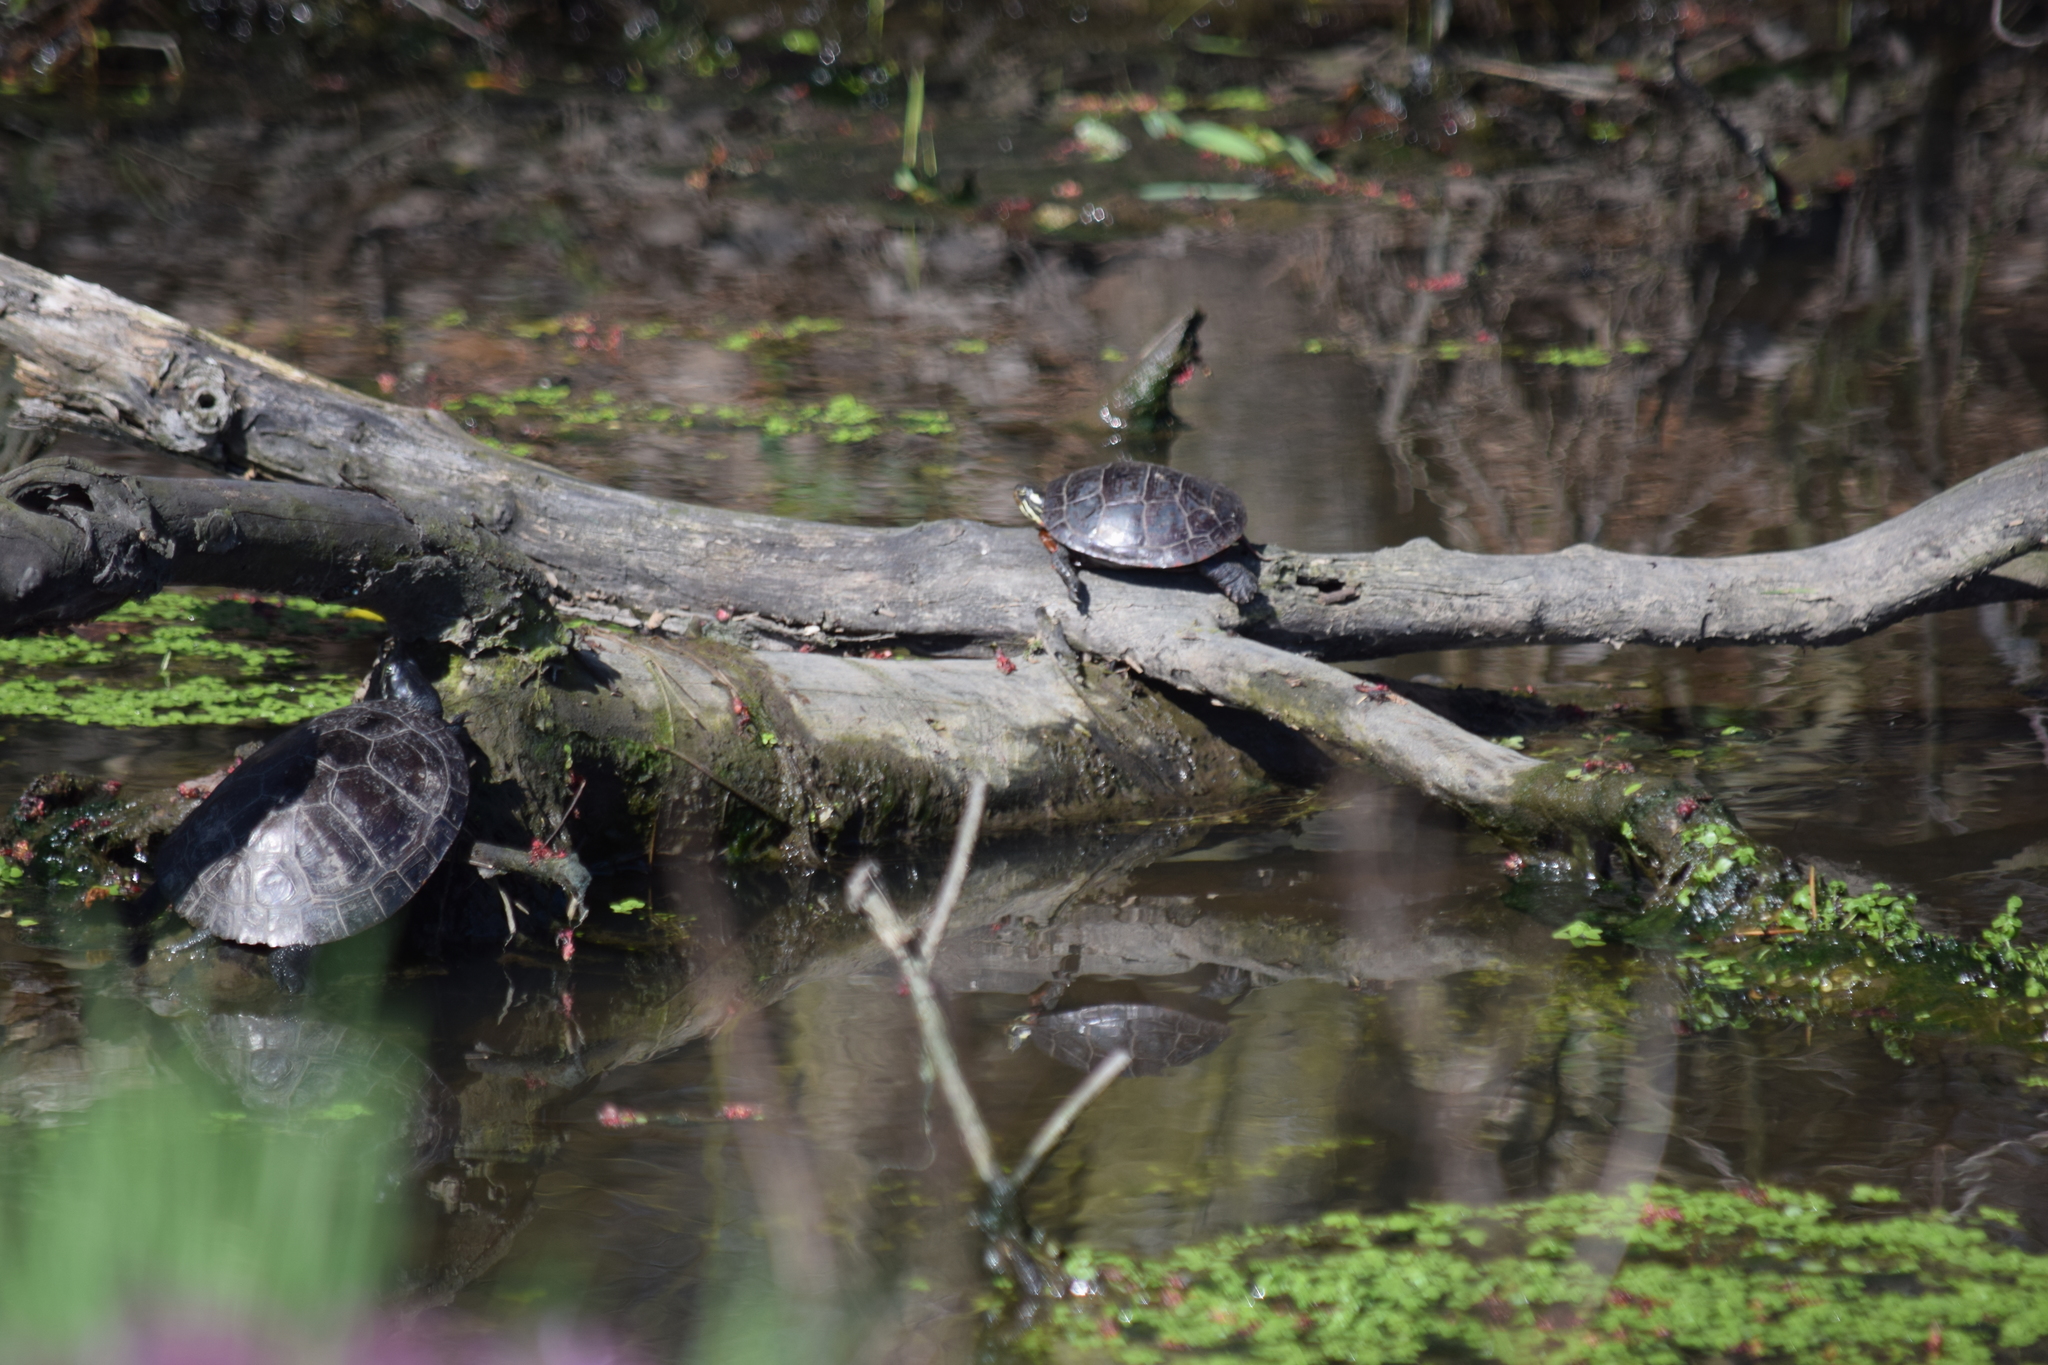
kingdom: Animalia
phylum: Chordata
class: Testudines
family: Emydidae
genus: Chrysemys
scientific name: Chrysemys picta
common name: Painted turtle
